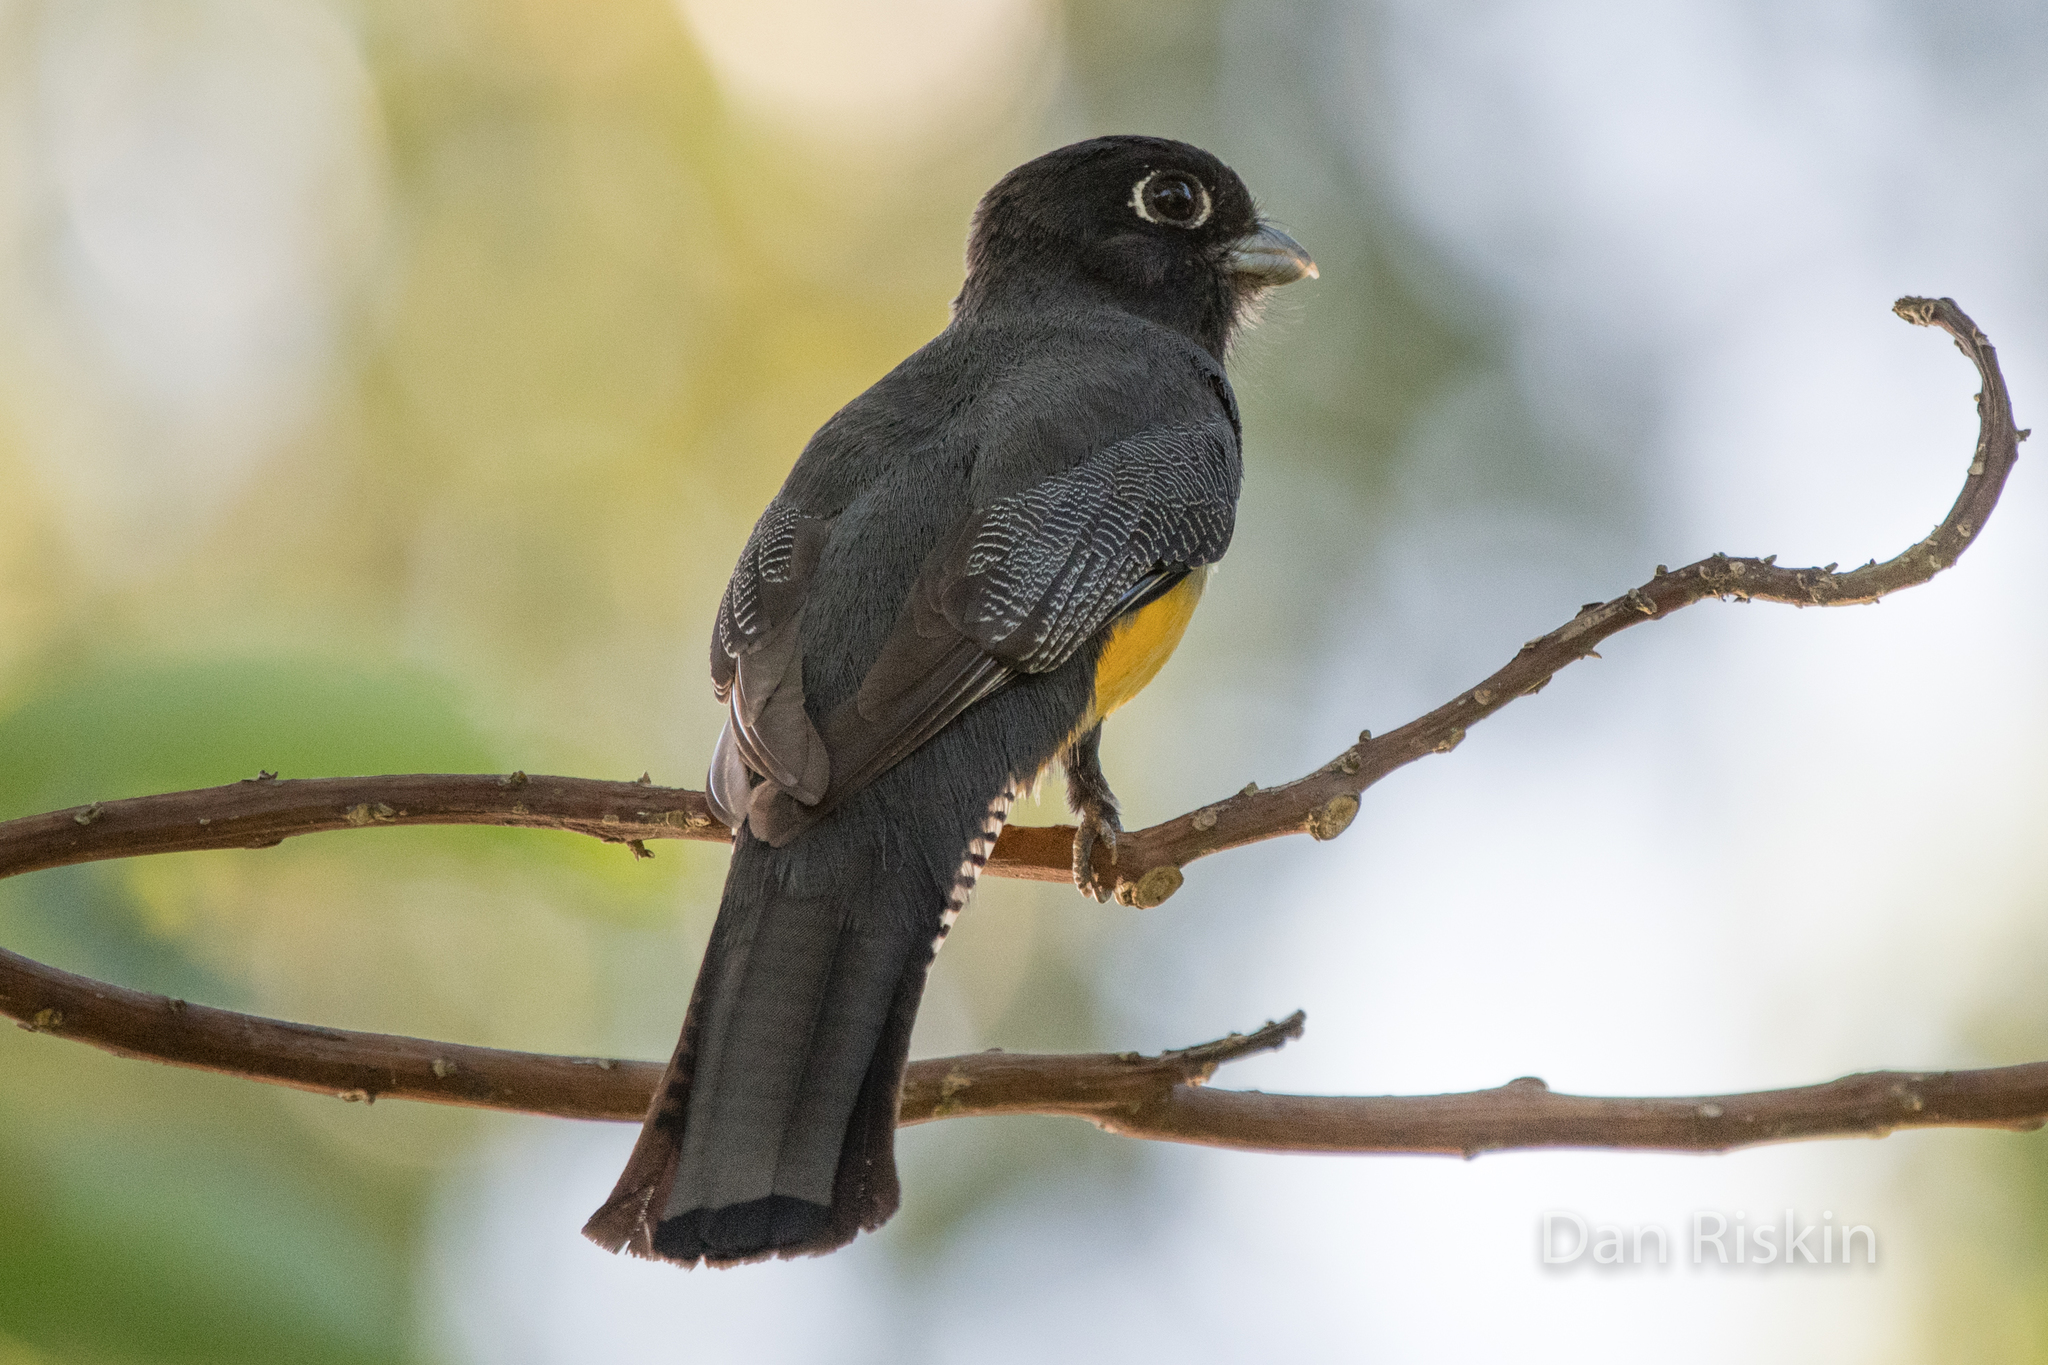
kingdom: Animalia
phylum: Chordata
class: Aves
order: Trogoniformes
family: Trogonidae
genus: Trogon
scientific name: Trogon caligatus
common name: Gartered trogon
